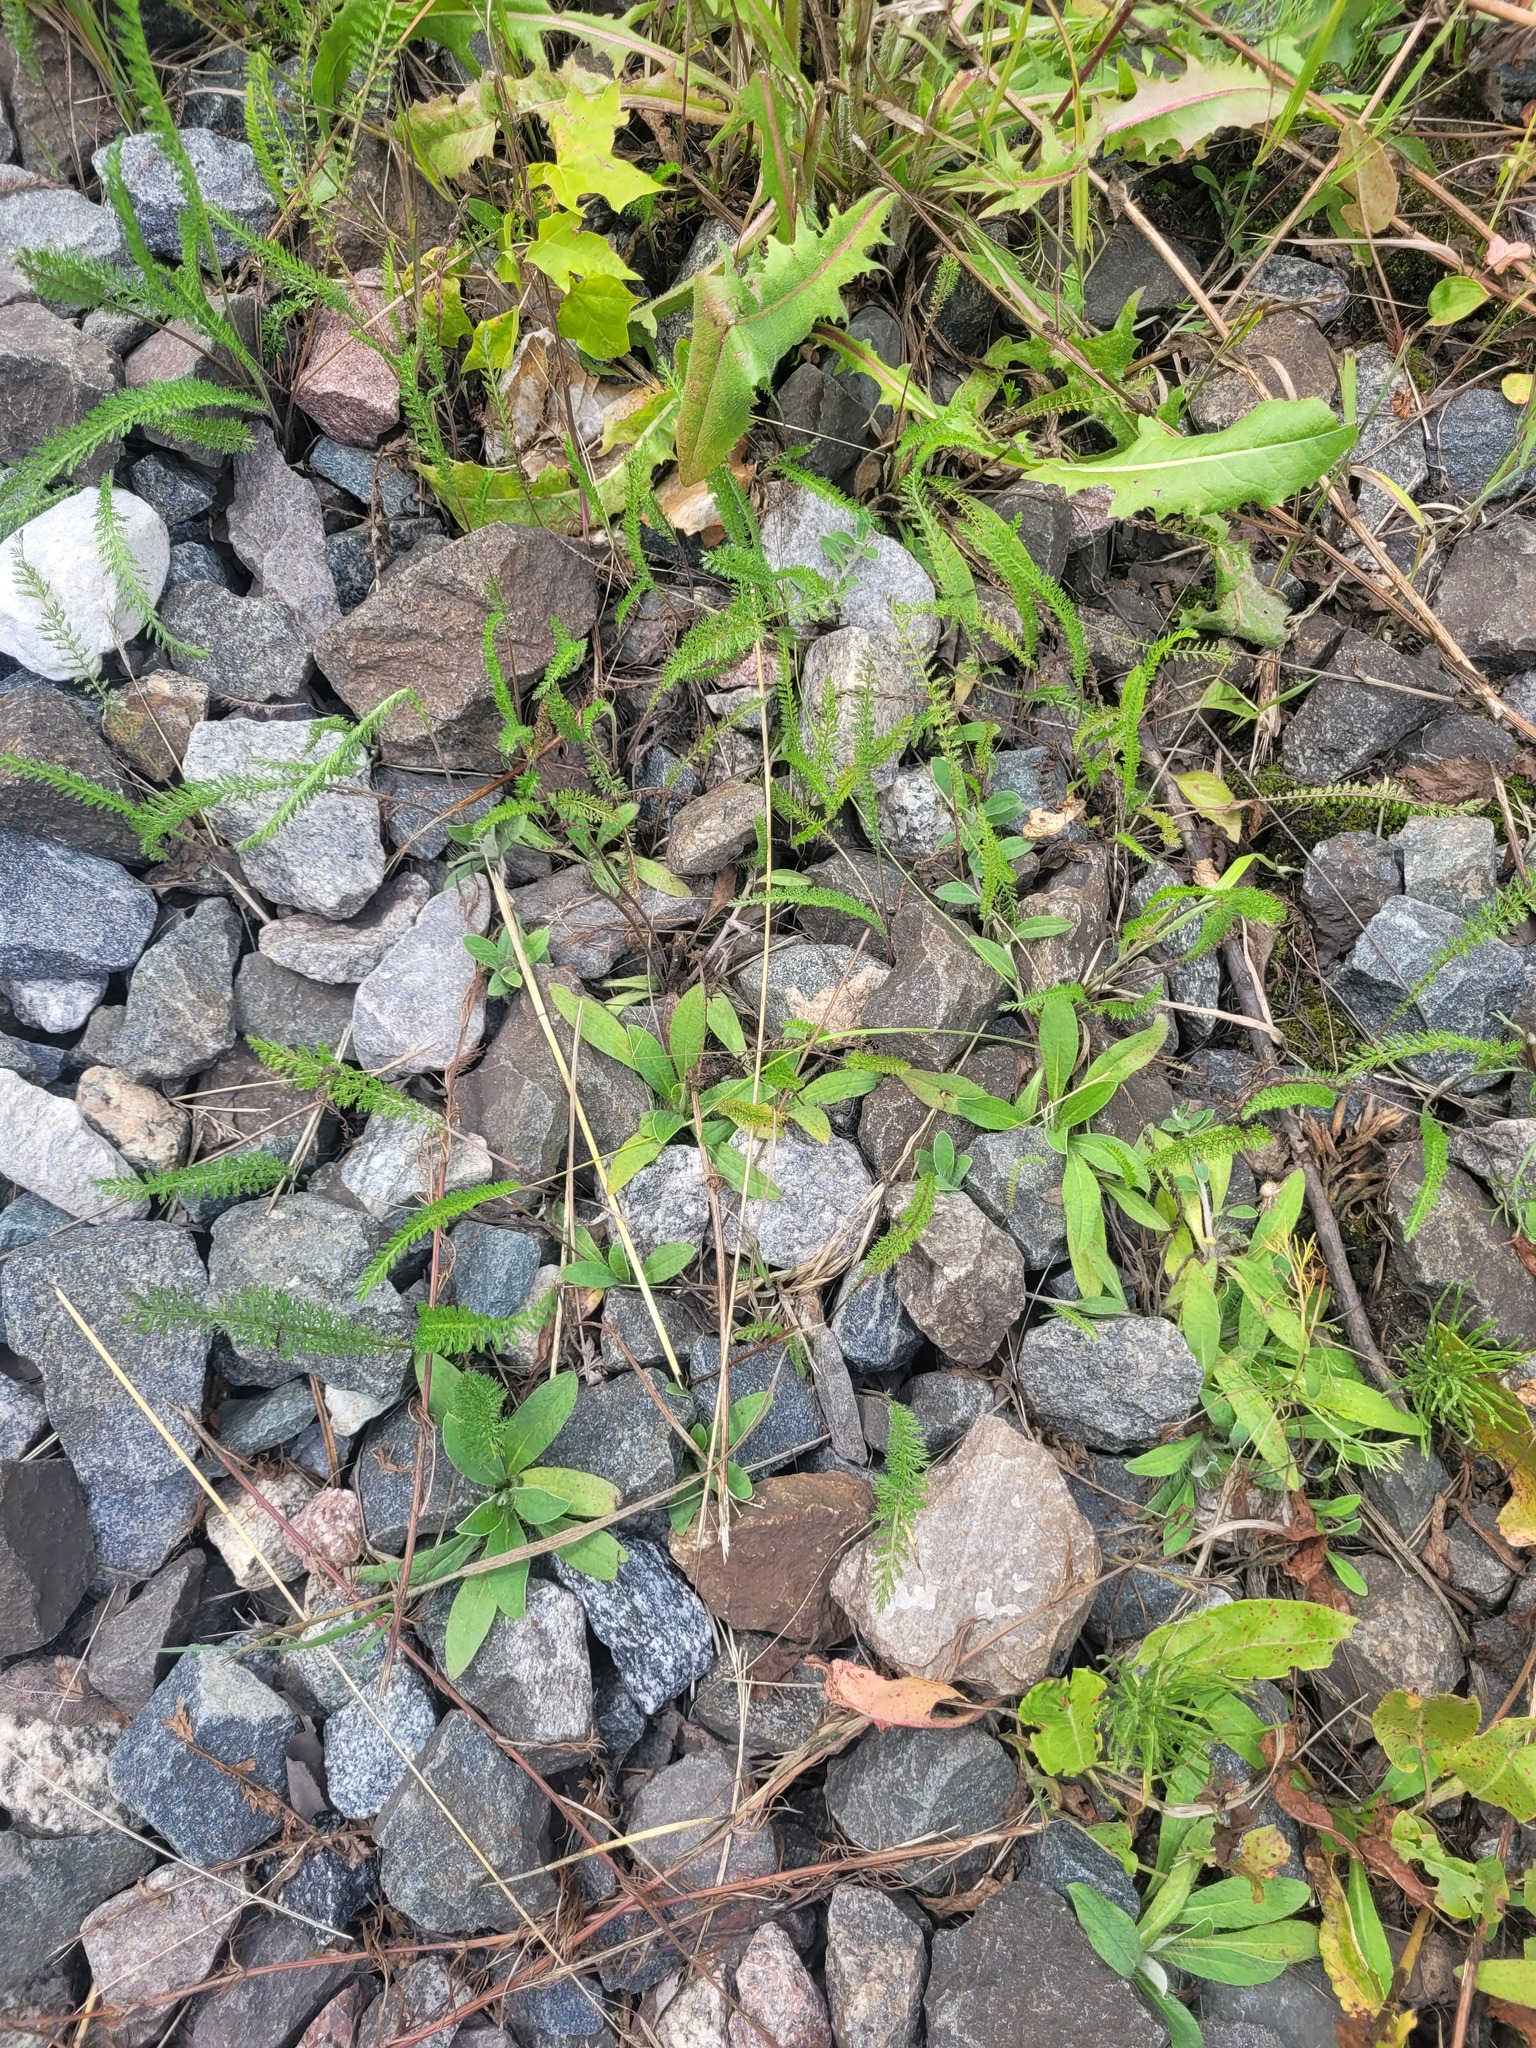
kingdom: Plantae
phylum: Tracheophyta
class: Magnoliopsida
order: Asterales
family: Asteraceae
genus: Pilosella
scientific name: Pilosella officinarum
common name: Mouse-ear hawkweed
